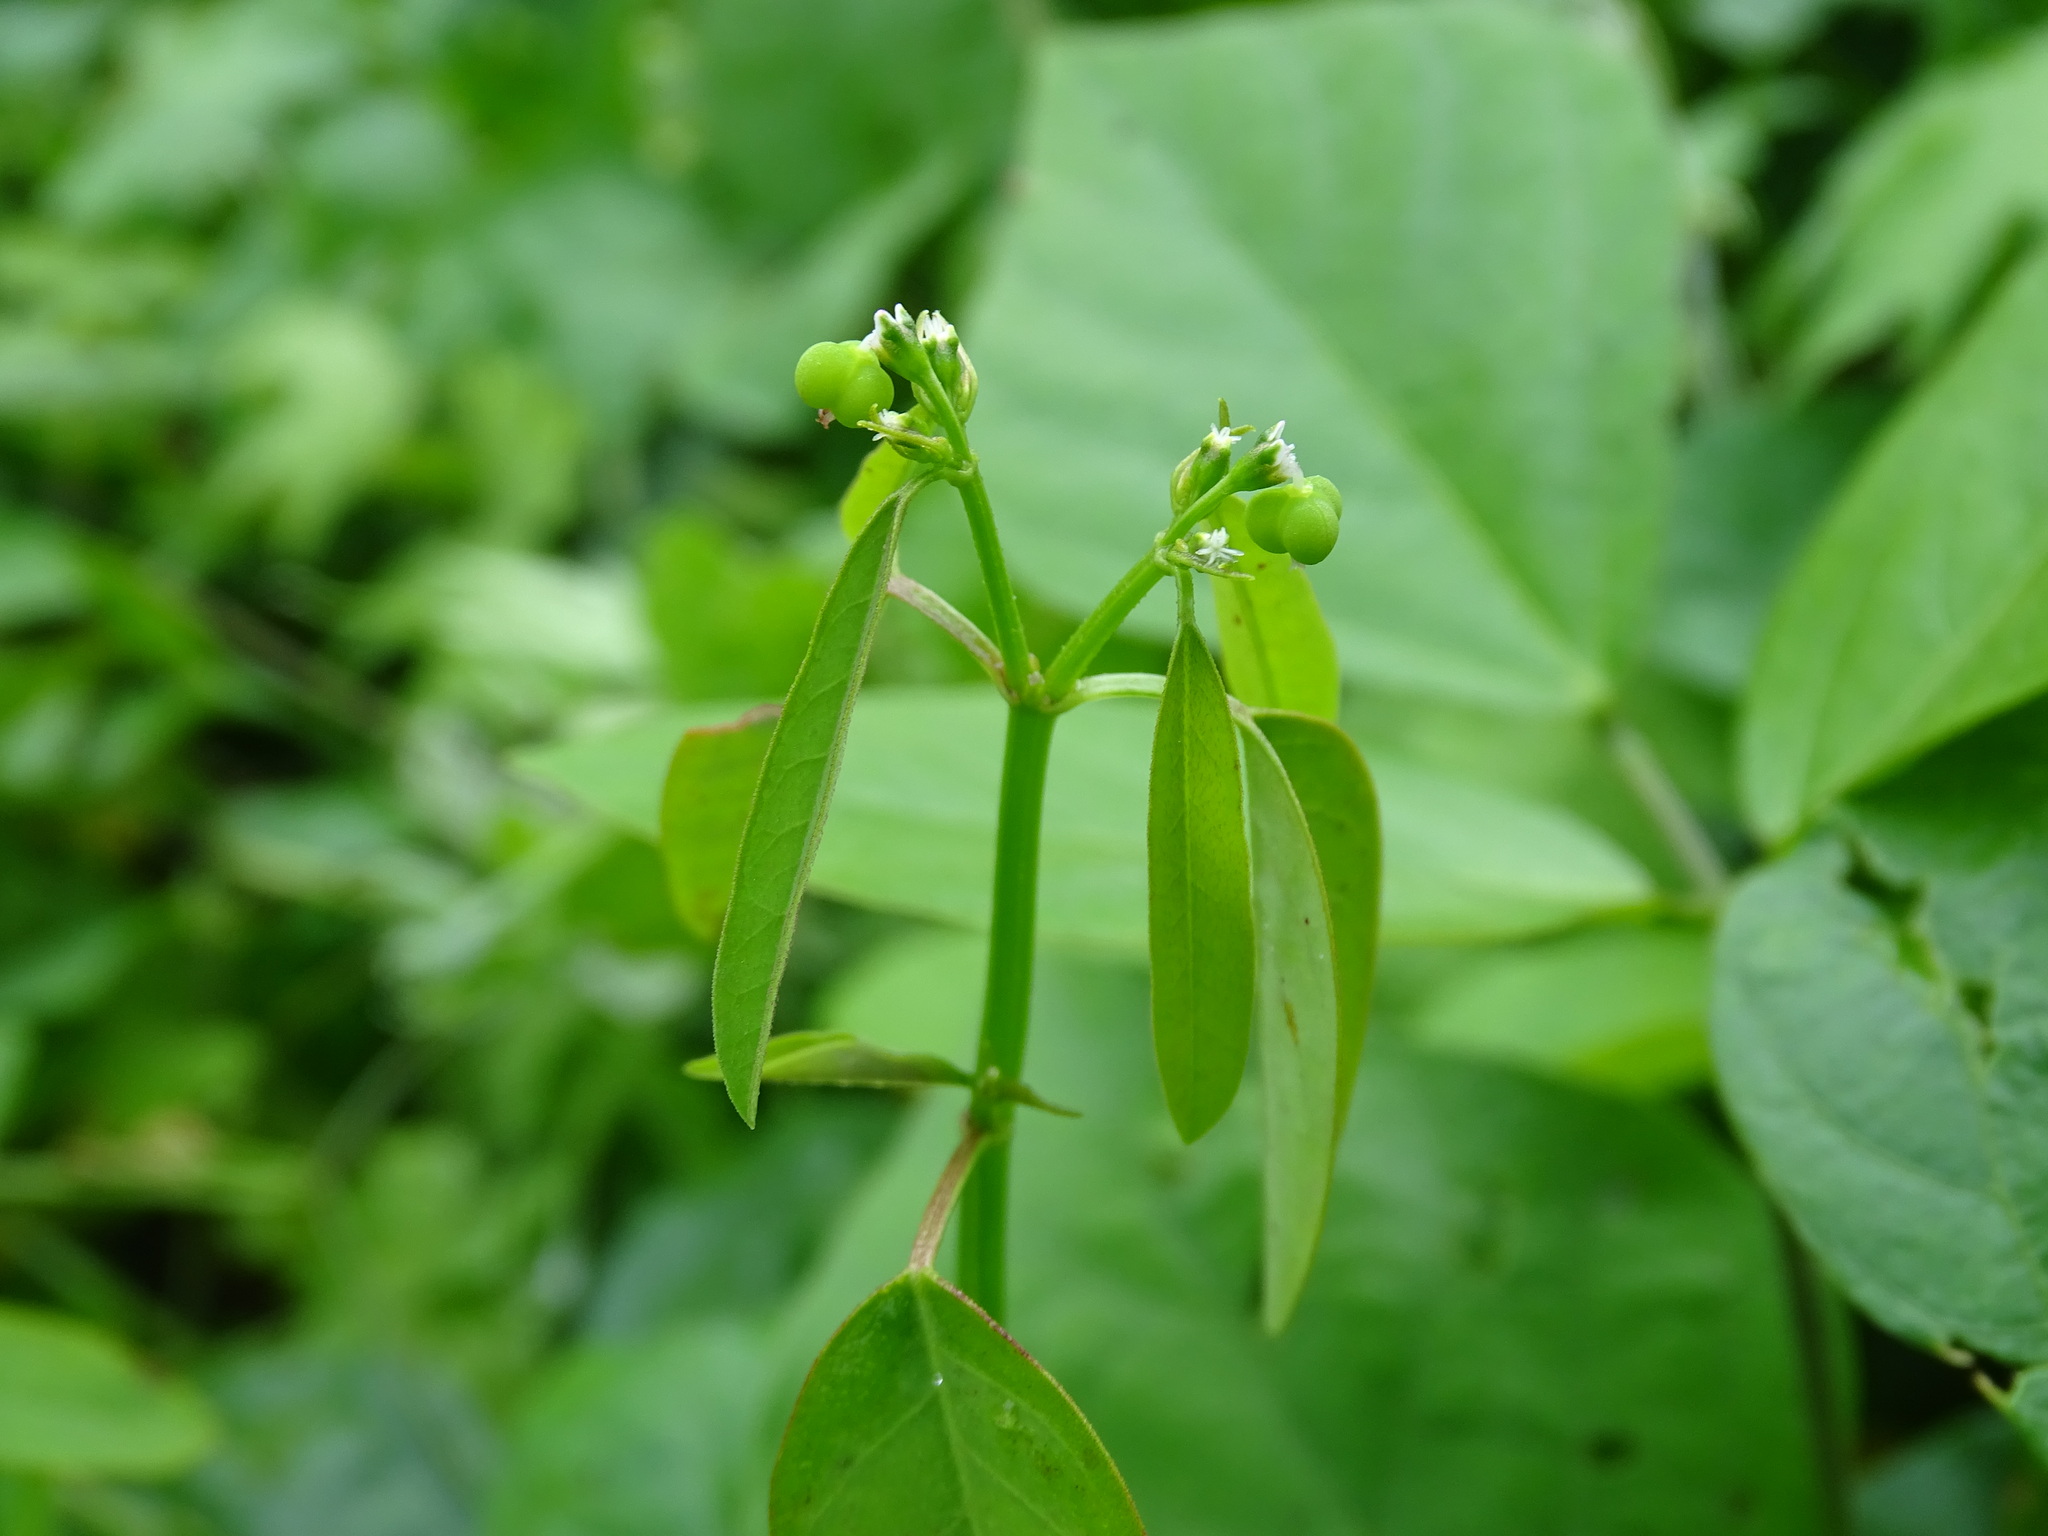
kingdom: Plantae
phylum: Tracheophyta
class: Magnoliopsida
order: Malpighiales
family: Euphorbiaceae
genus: Euphorbia
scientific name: Euphorbia graminea
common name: Grassleaf spurge
